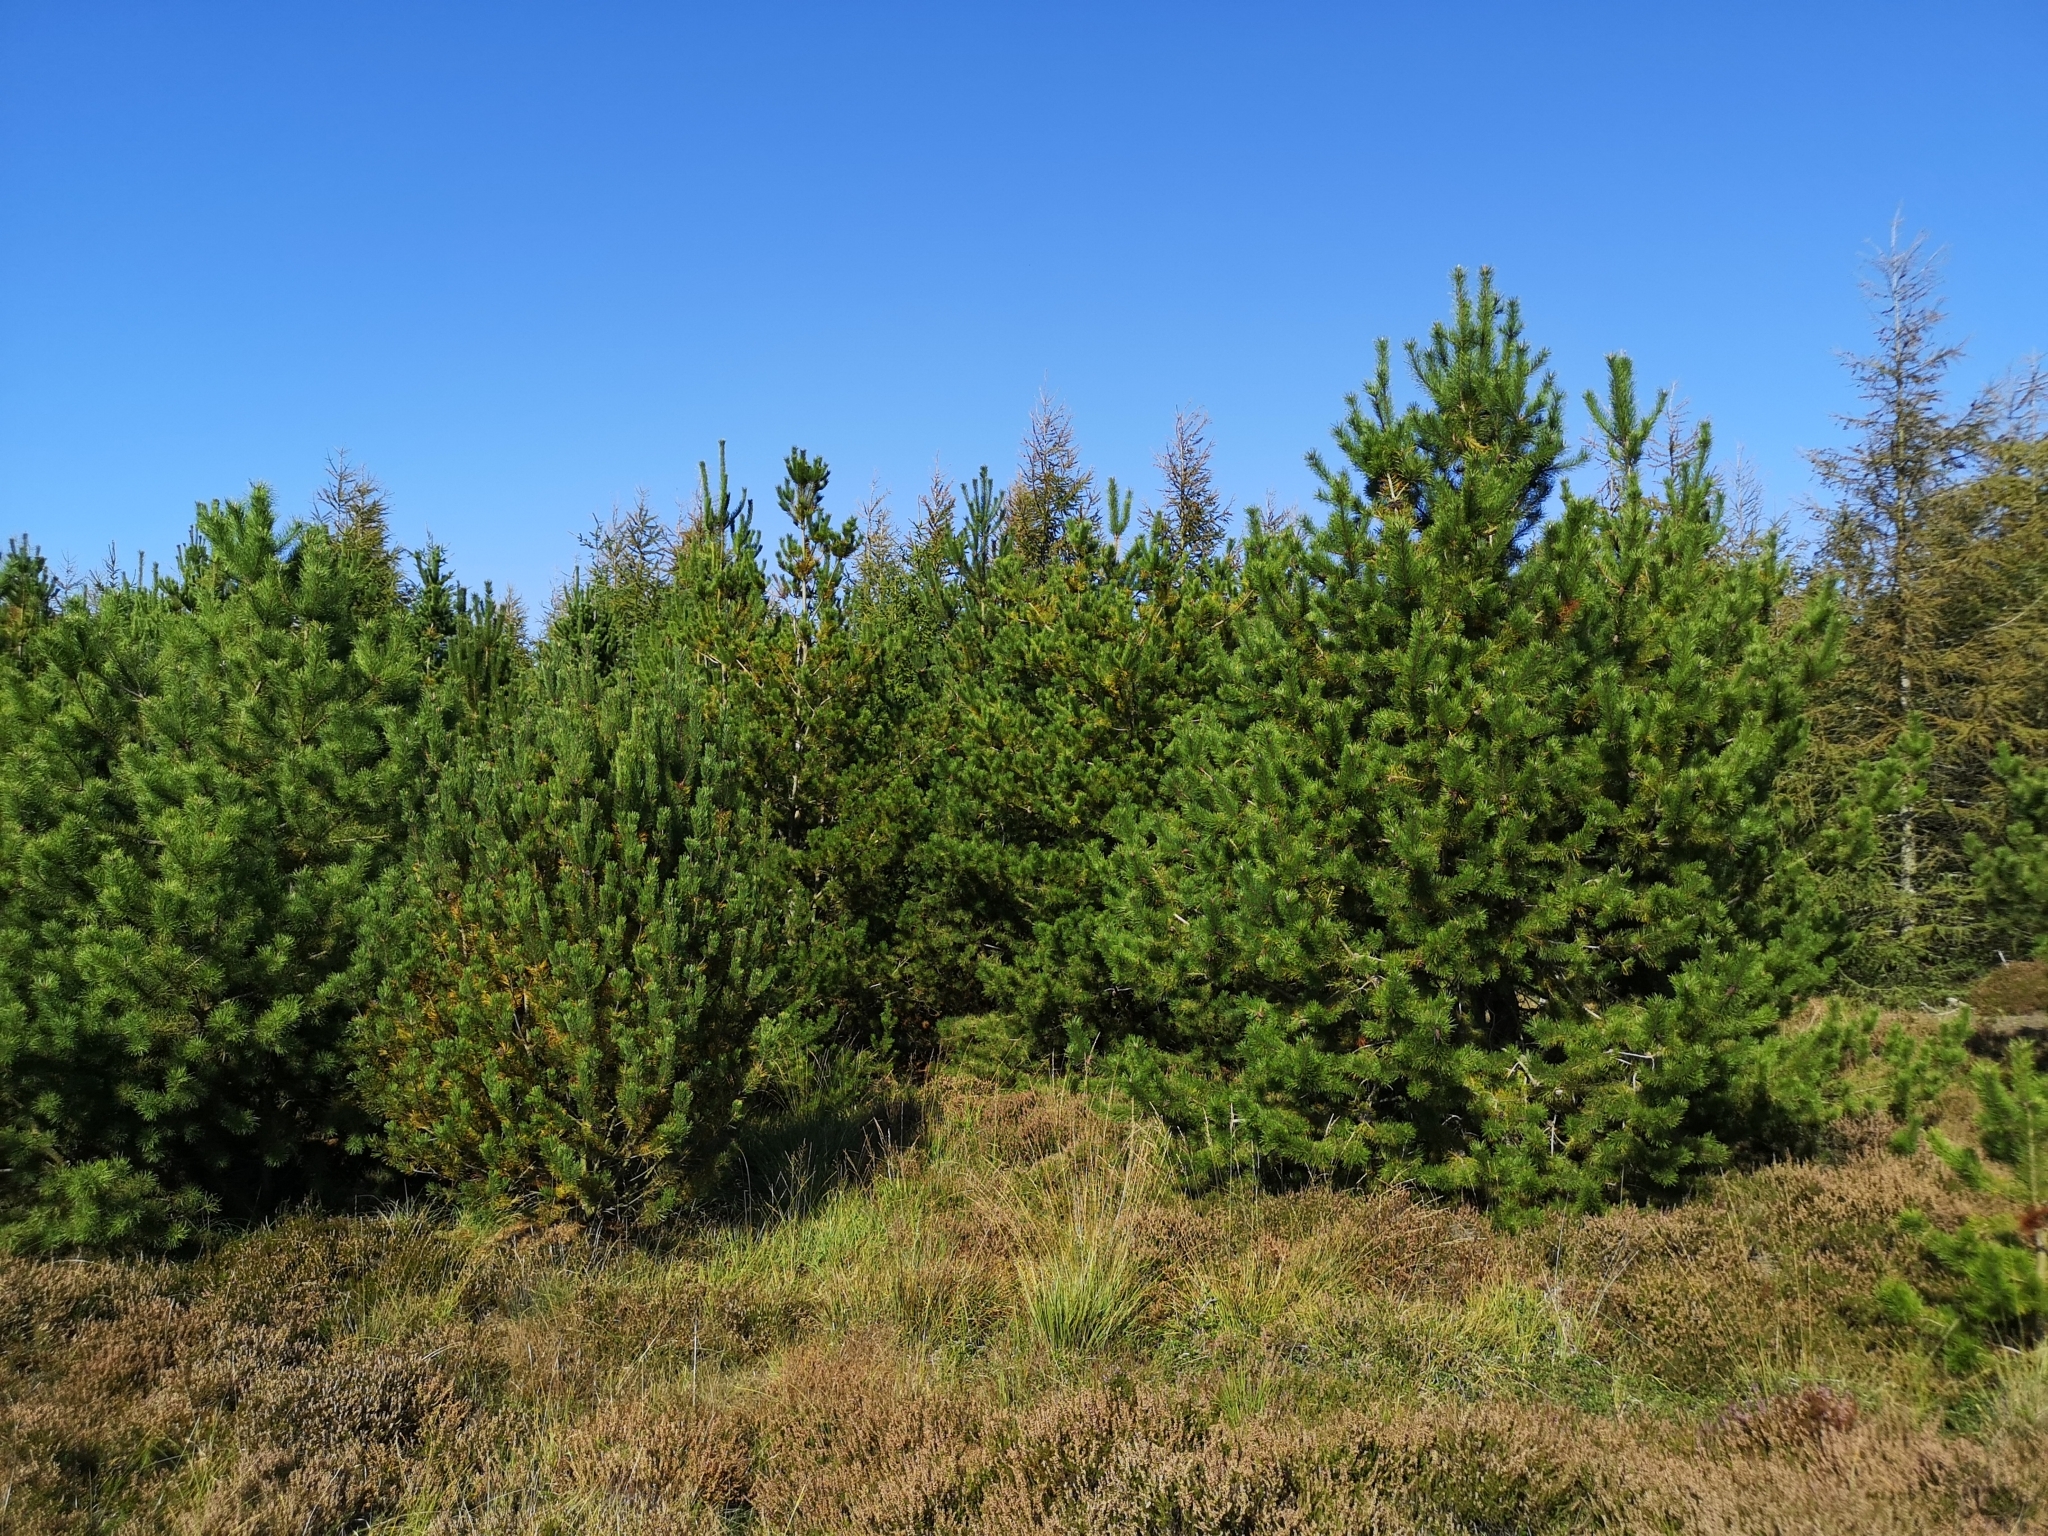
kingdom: Plantae
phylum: Tracheophyta
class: Pinopsida
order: Pinales
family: Pinaceae
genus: Pinus
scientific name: Pinus contorta
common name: Lodgepole pine
